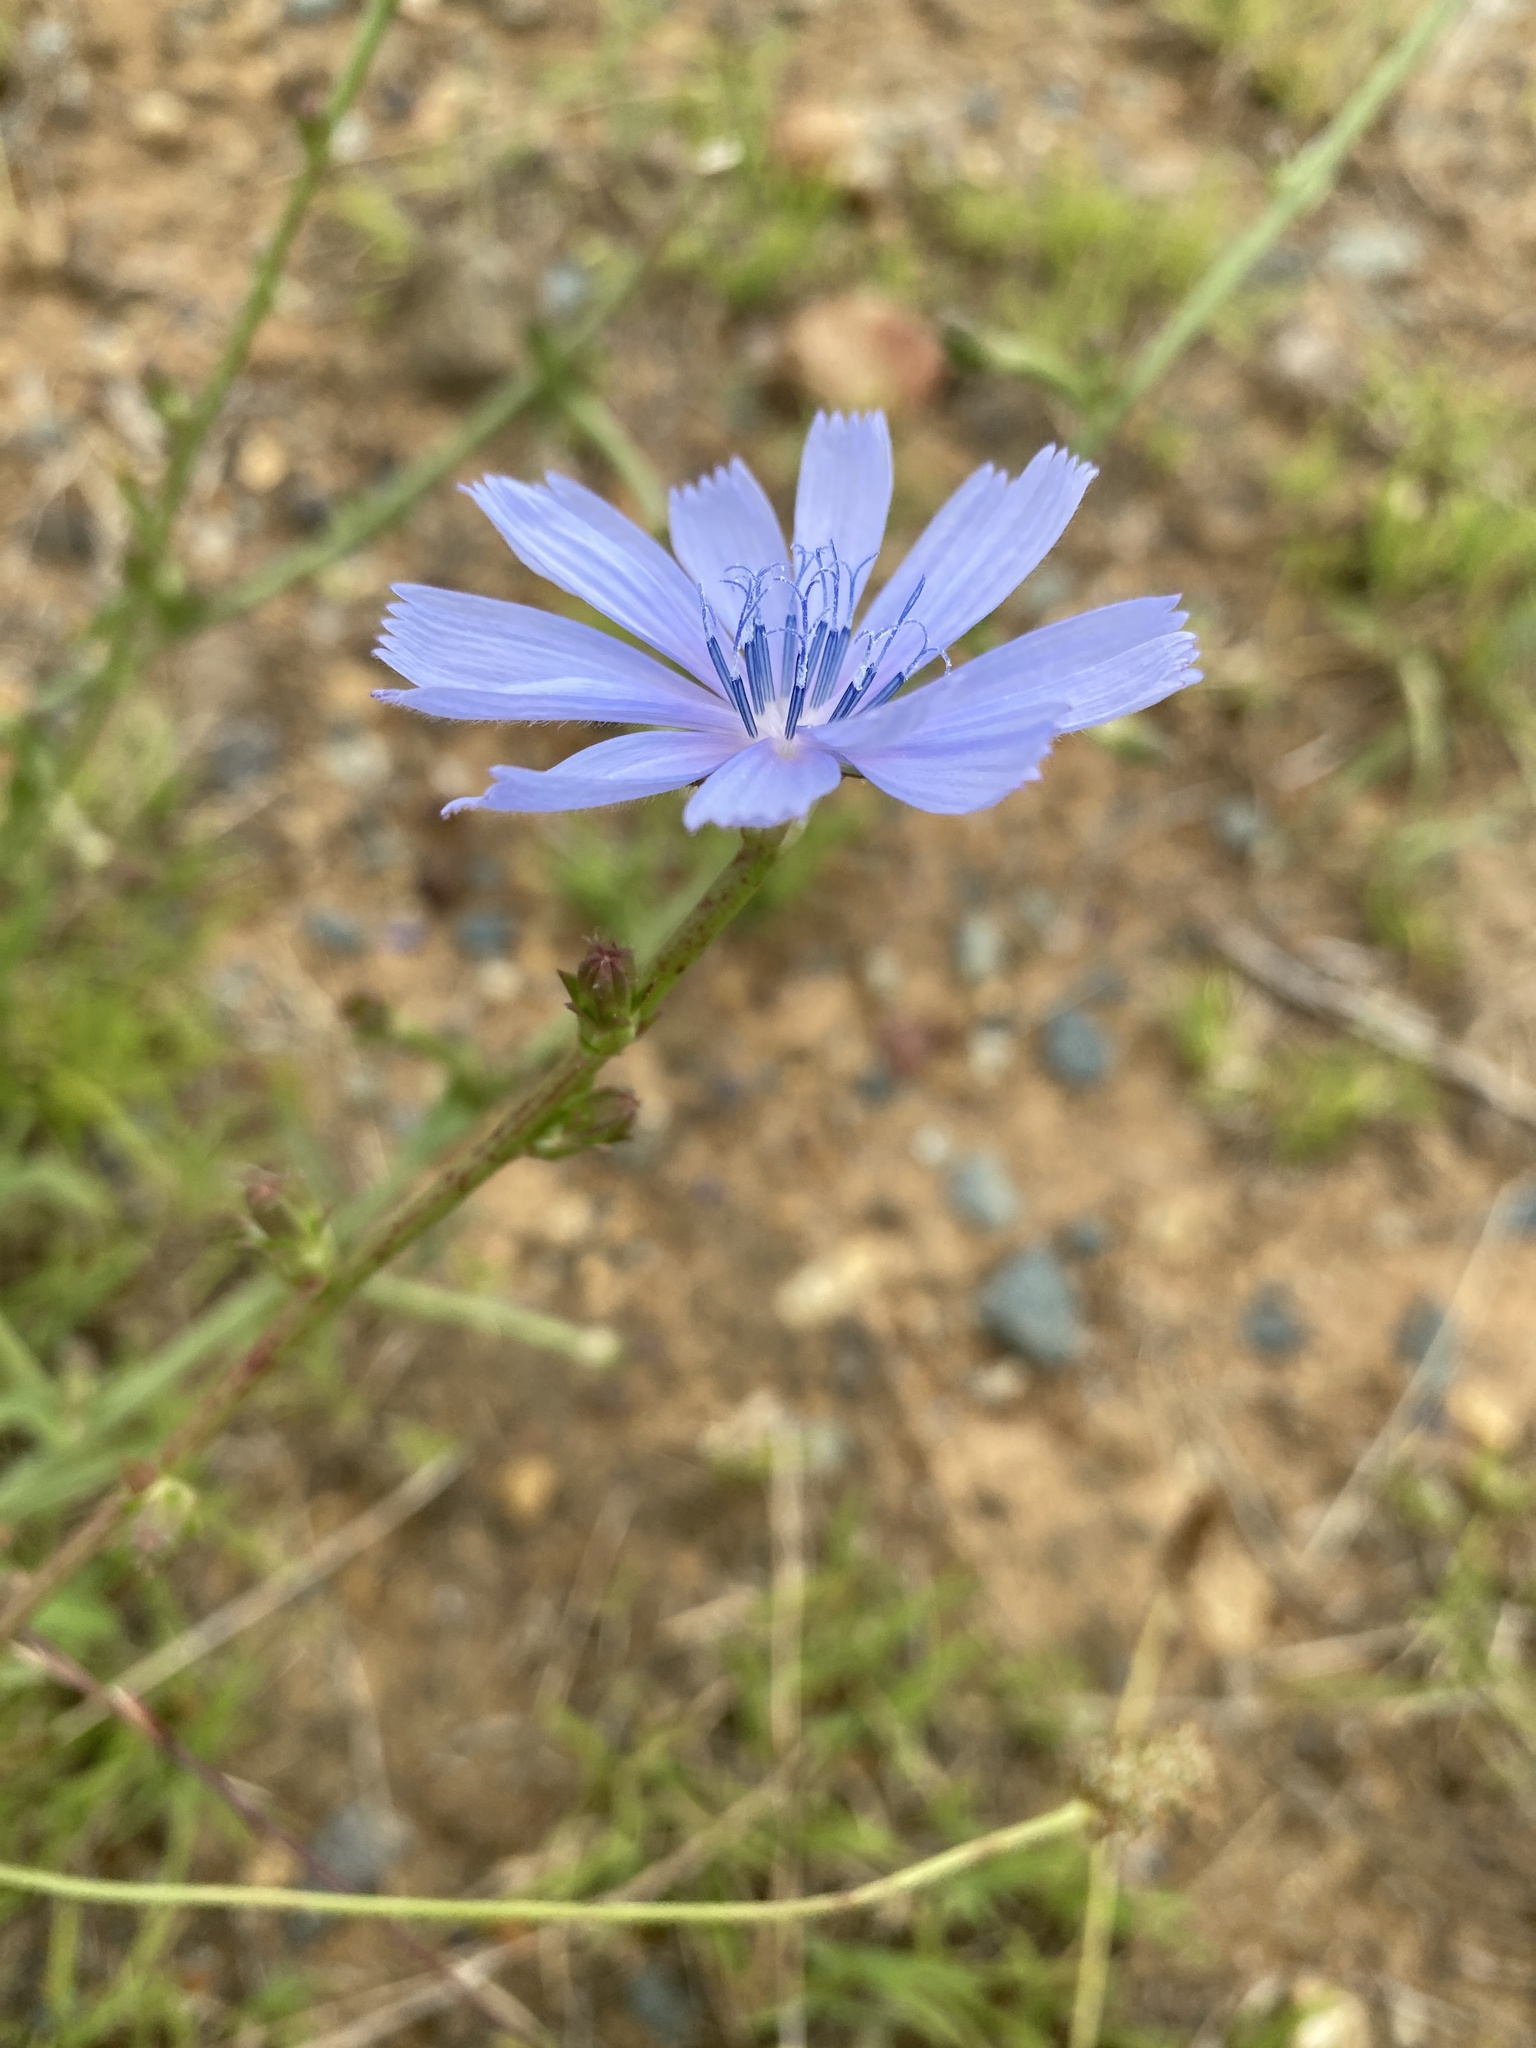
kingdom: Plantae
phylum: Tracheophyta
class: Magnoliopsida
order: Asterales
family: Asteraceae
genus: Cichorium
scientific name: Cichorium intybus
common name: Chicory
